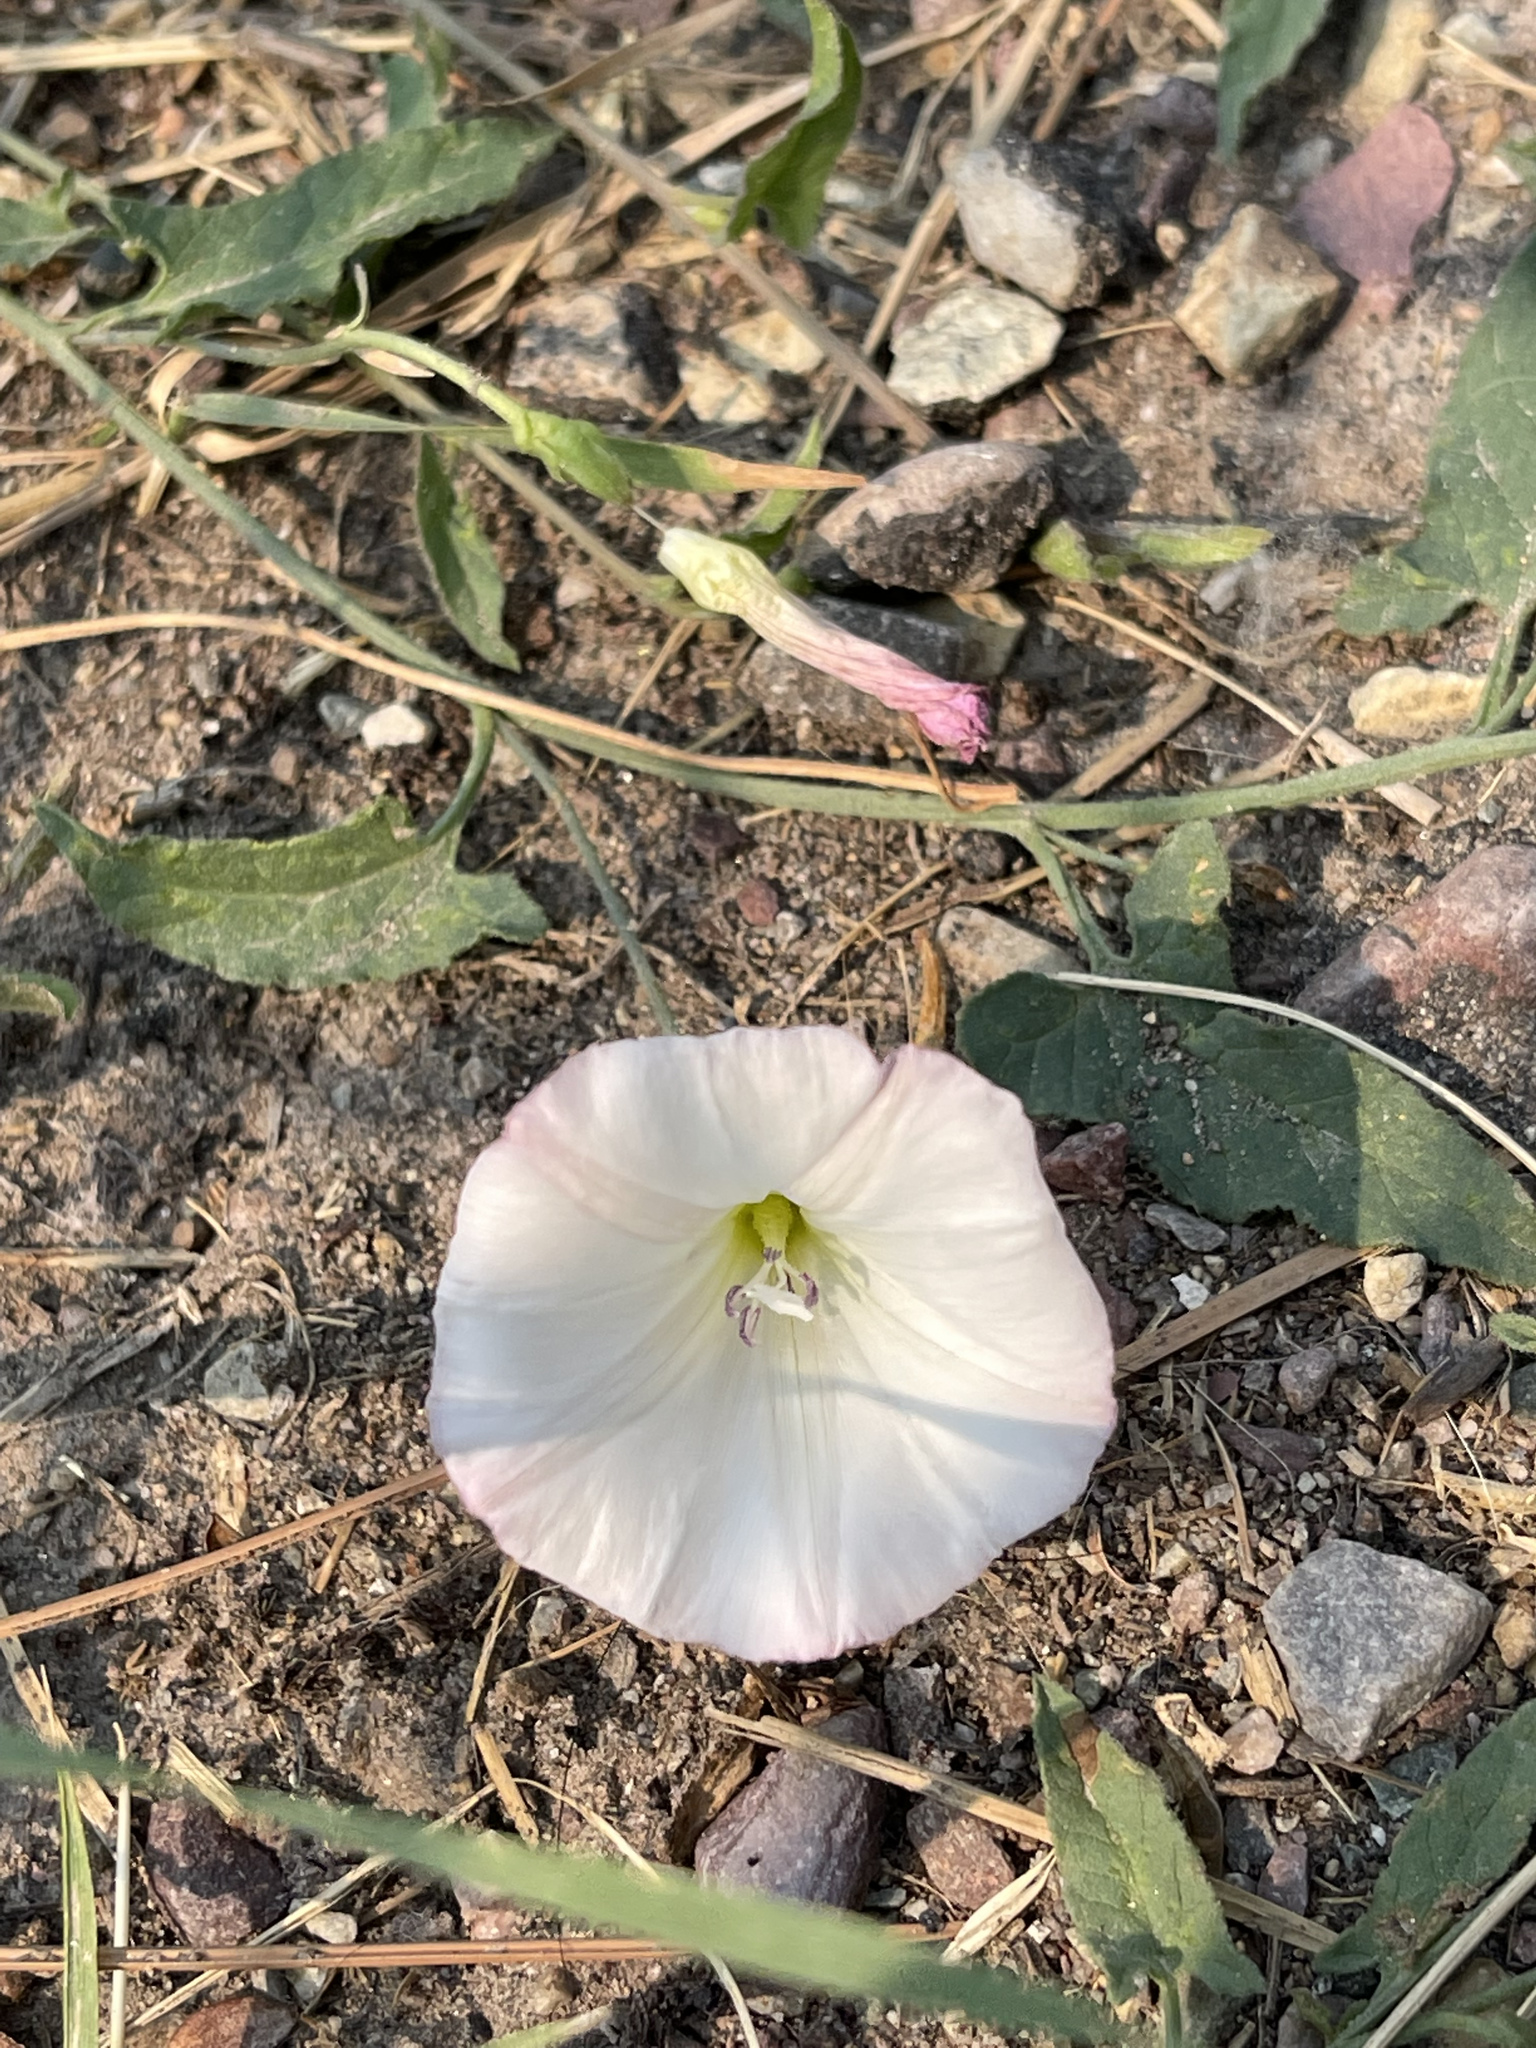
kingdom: Plantae
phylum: Tracheophyta
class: Magnoliopsida
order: Solanales
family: Convolvulaceae
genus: Convolvulus
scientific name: Convolvulus arvensis
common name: Field bindweed
